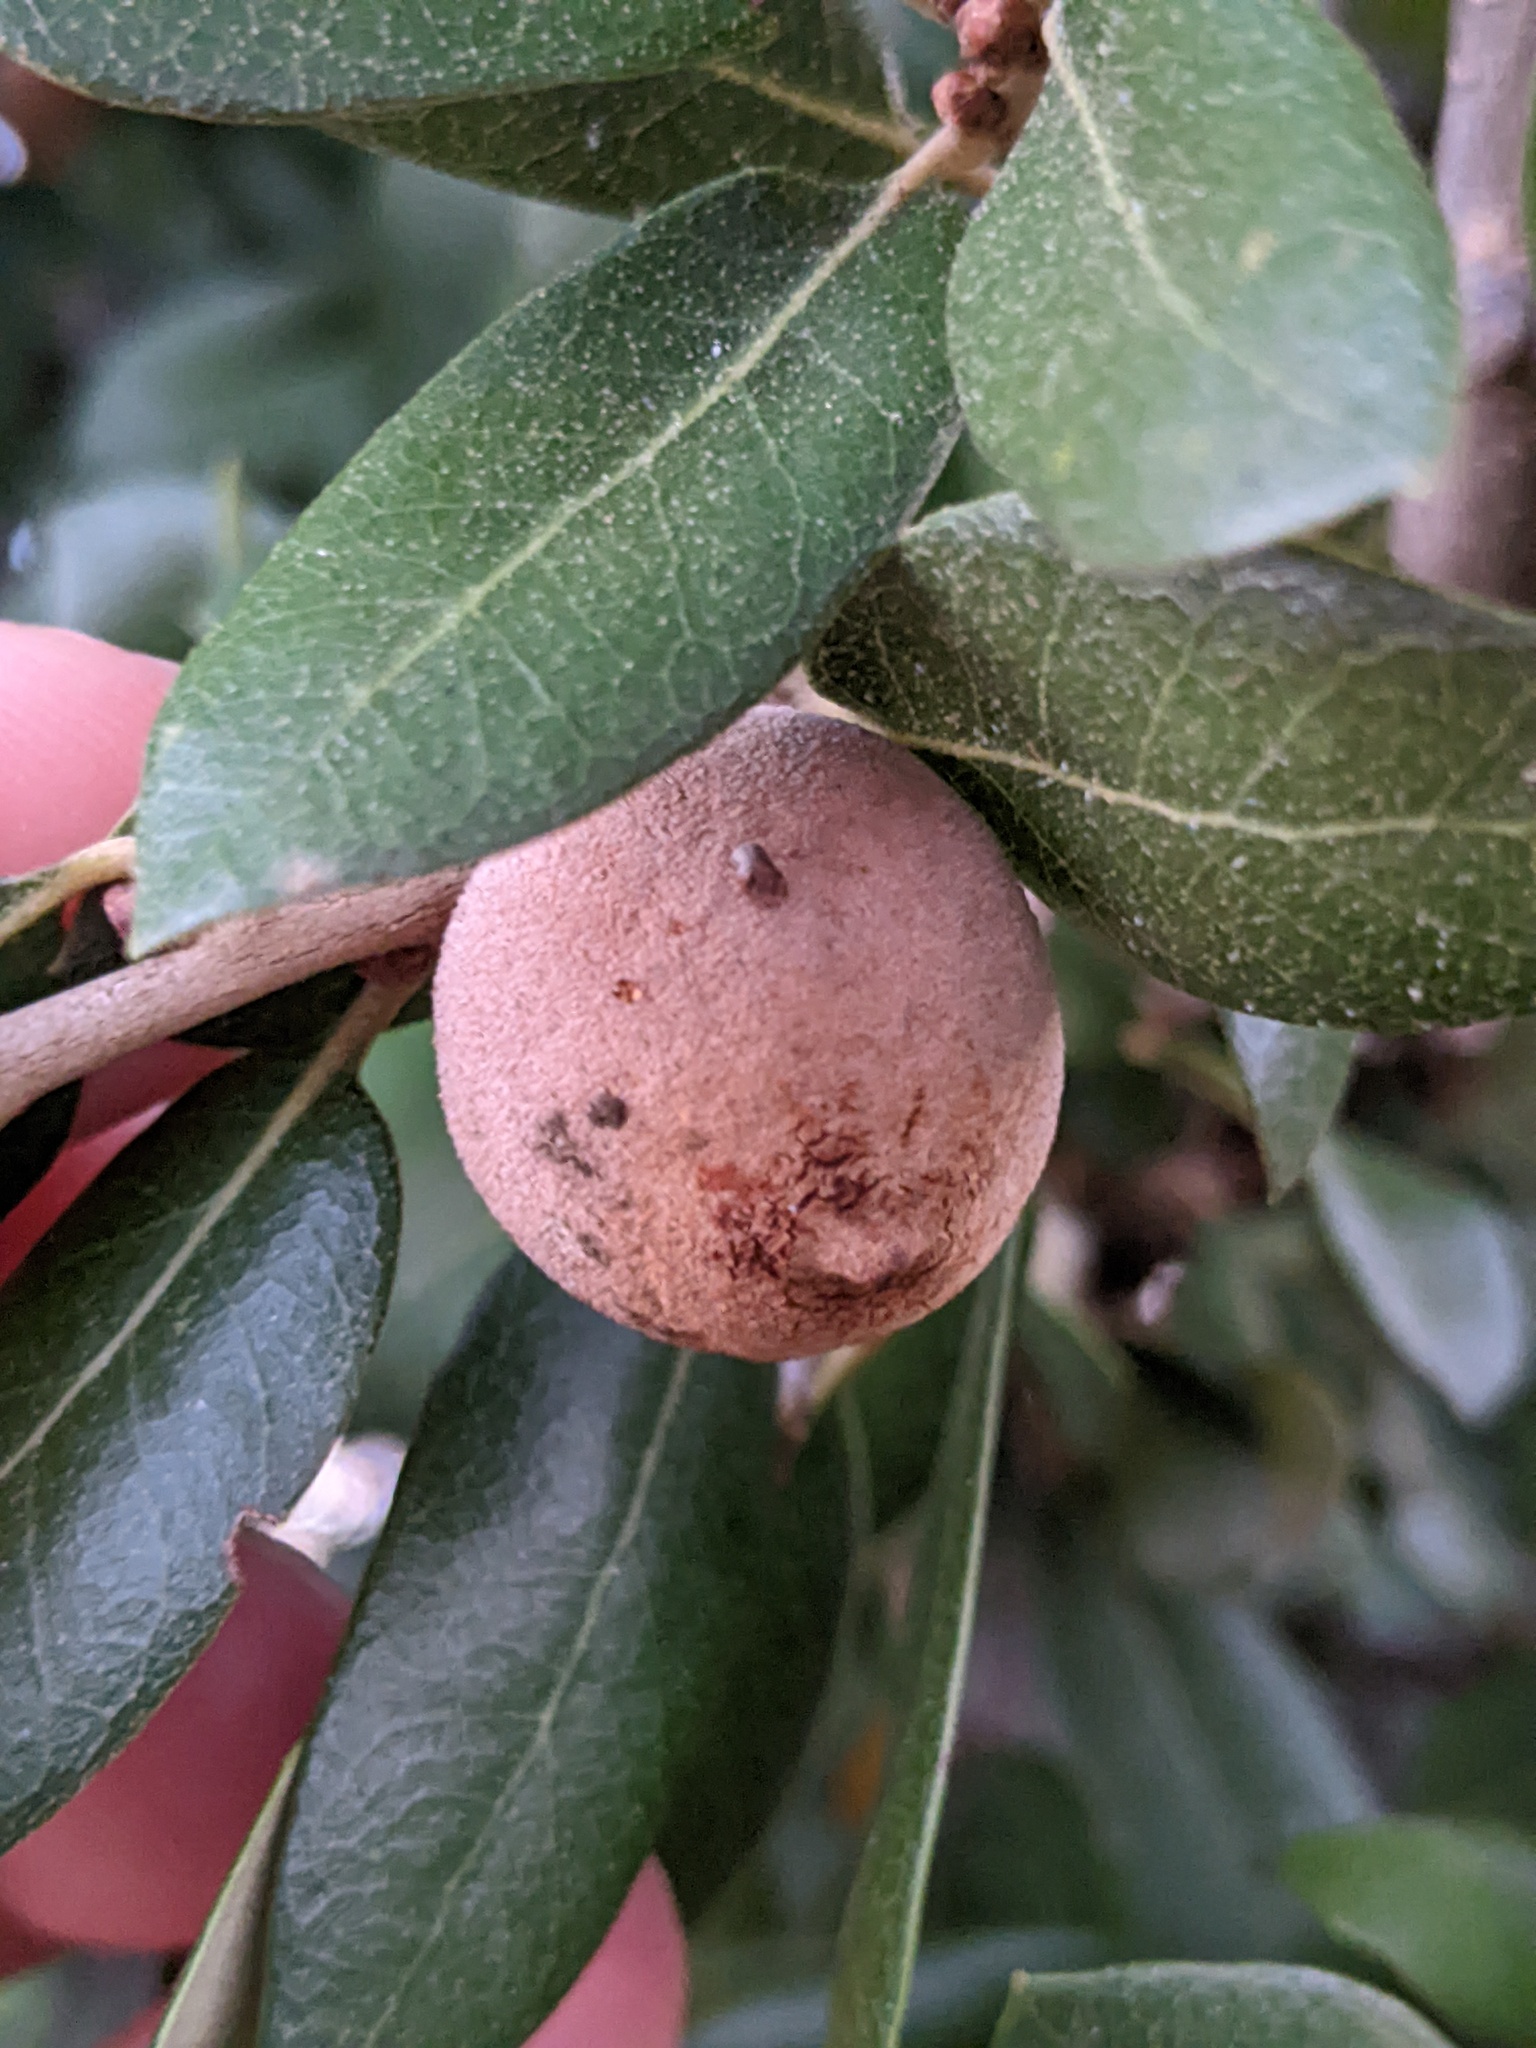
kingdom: Animalia
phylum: Arthropoda
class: Insecta
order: Hymenoptera
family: Cynipidae
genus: Disholcaspis
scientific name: Disholcaspis
